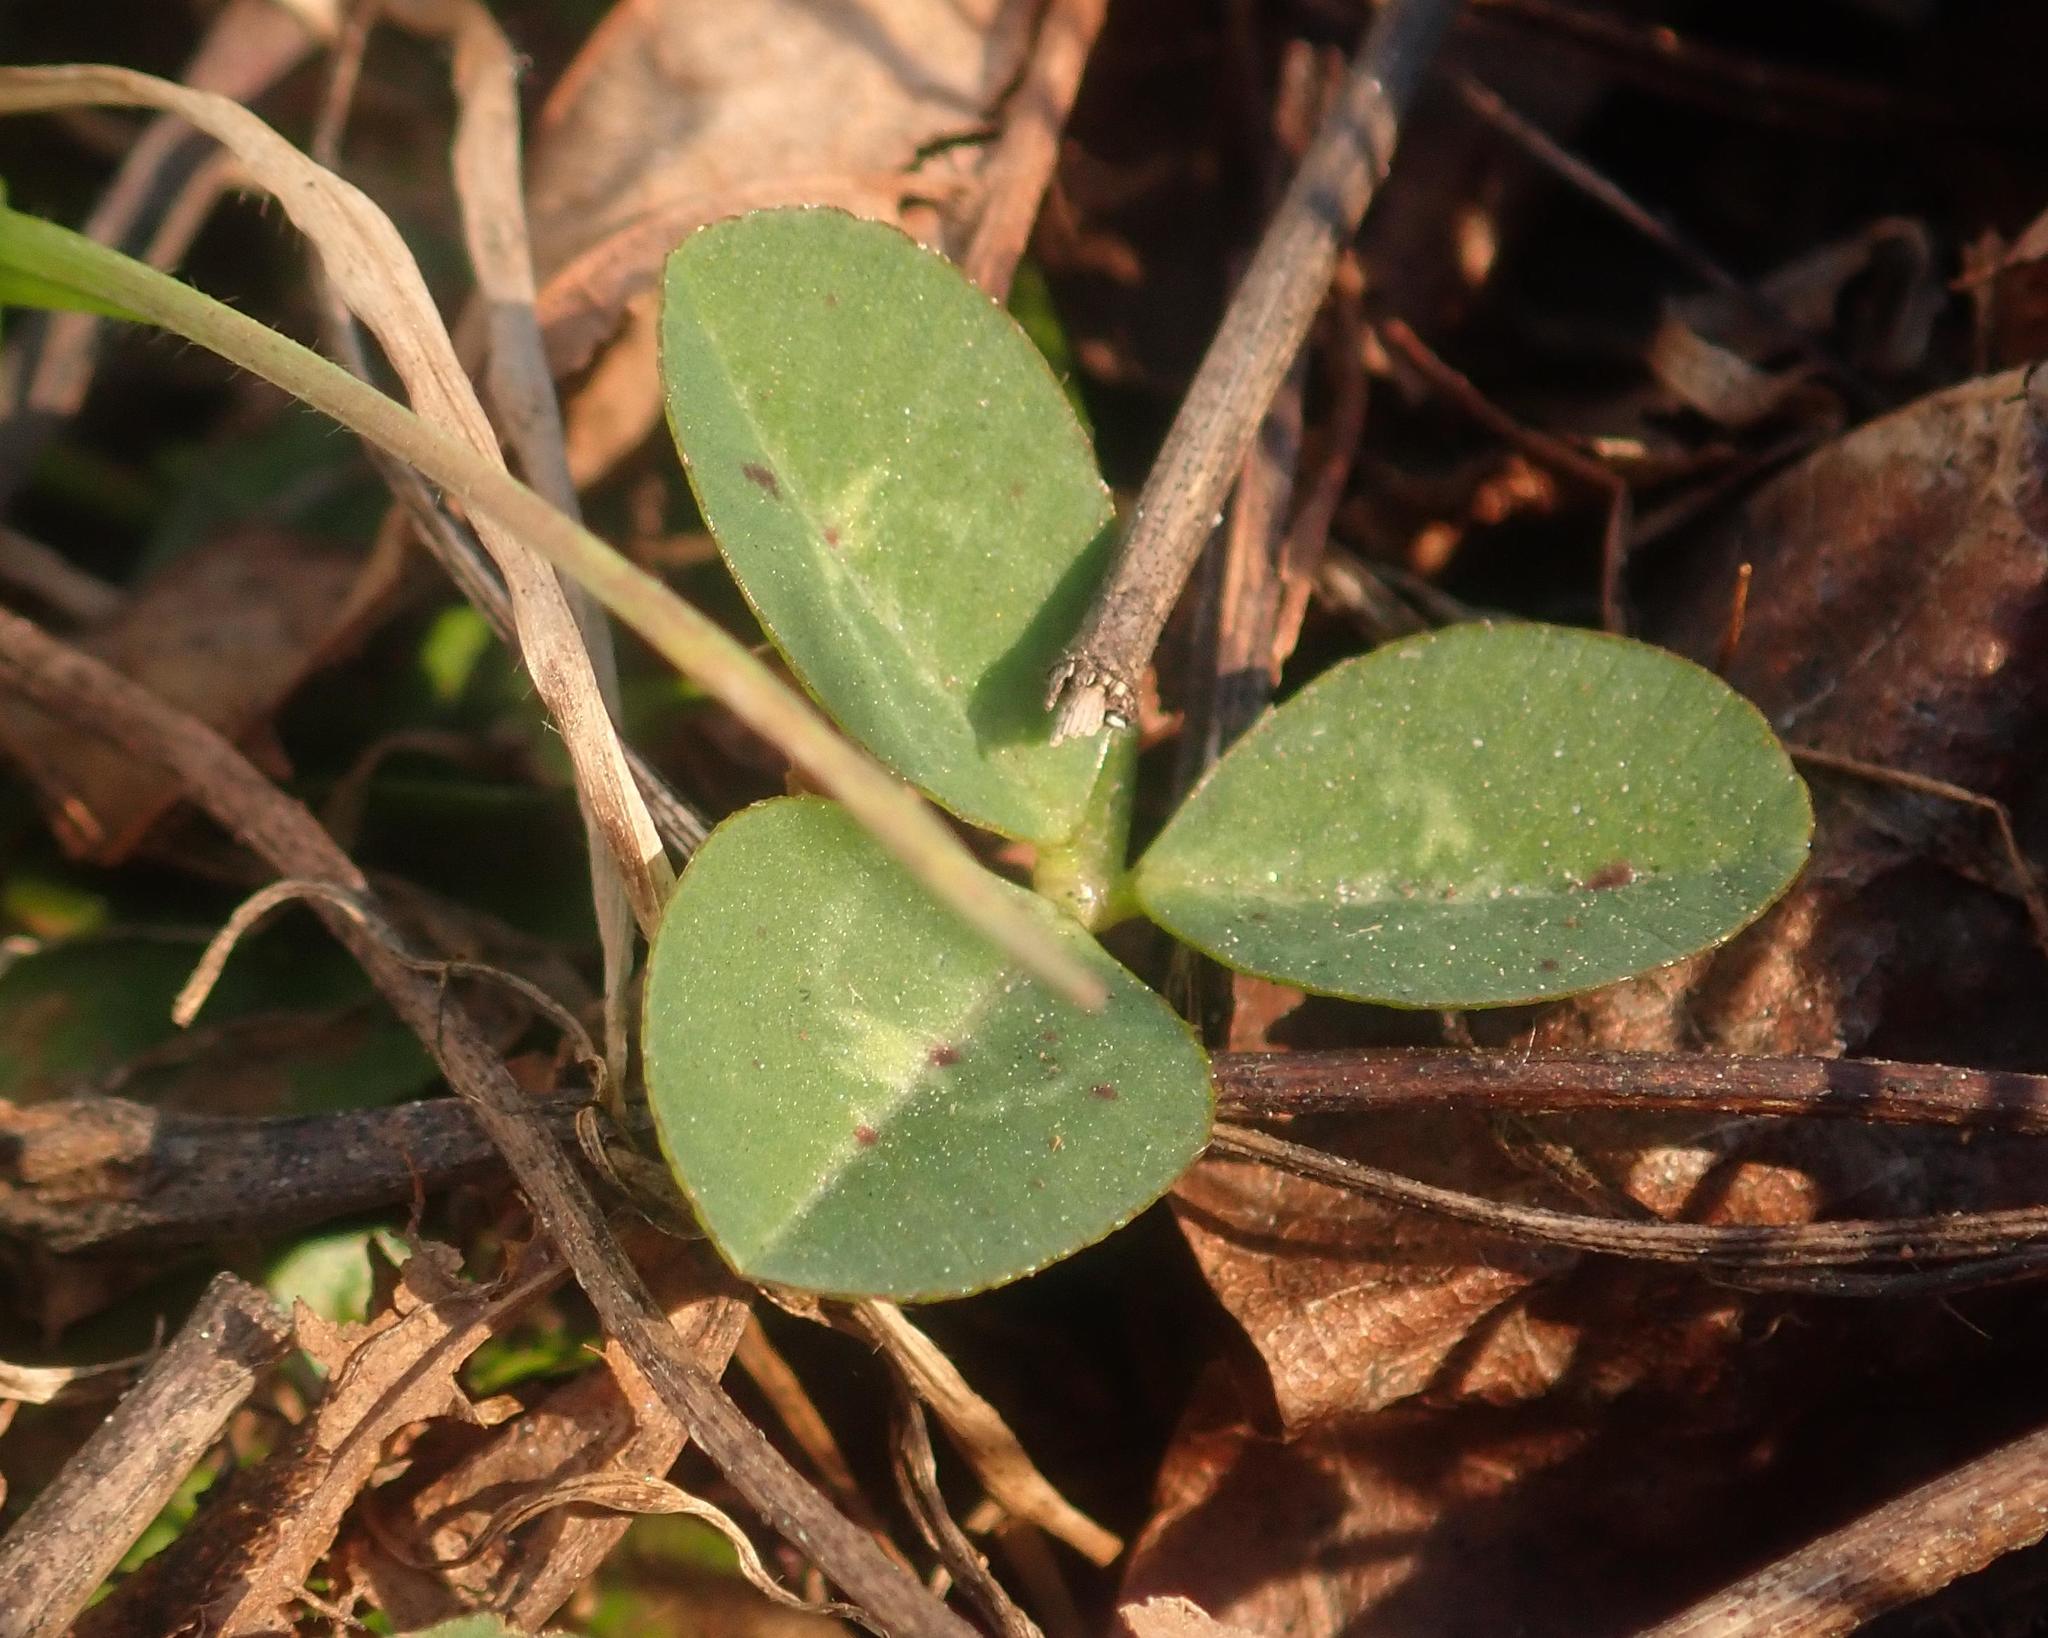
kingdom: Plantae
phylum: Tracheophyta
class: Magnoliopsida
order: Fabales
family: Fabaceae
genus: Trifolium
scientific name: Trifolium repens
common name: White clover
